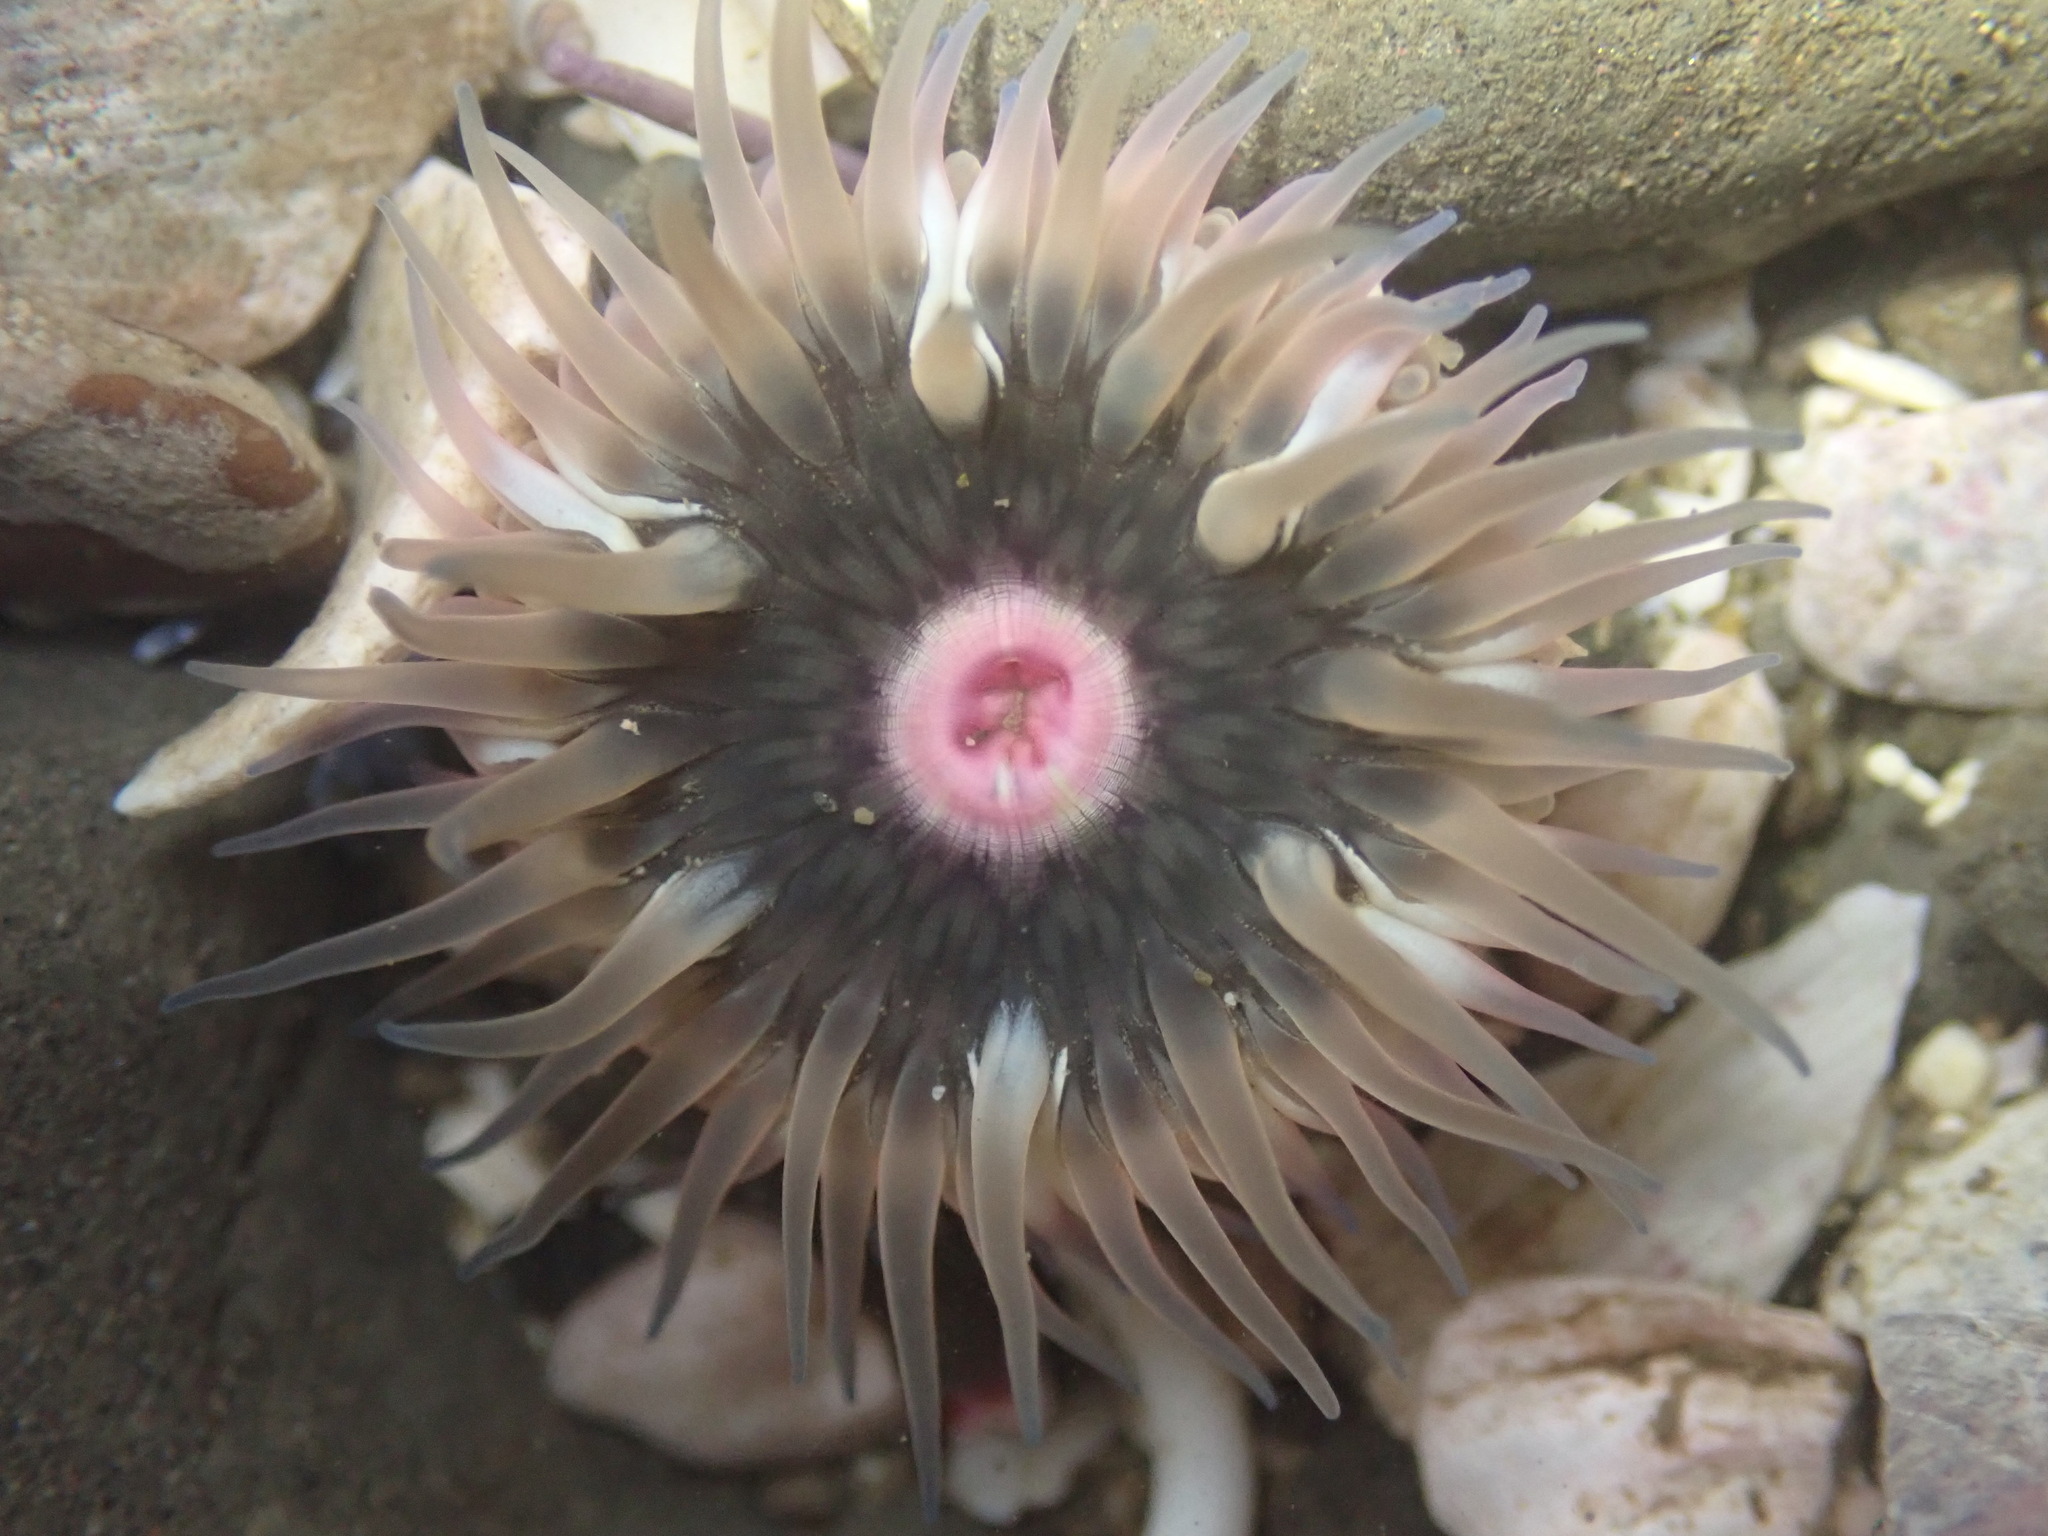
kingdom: Animalia
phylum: Cnidaria
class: Anthozoa
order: Actiniaria
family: Actiniidae
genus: Anthopleura
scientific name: Anthopleura artemisia
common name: Buried sea anemone
